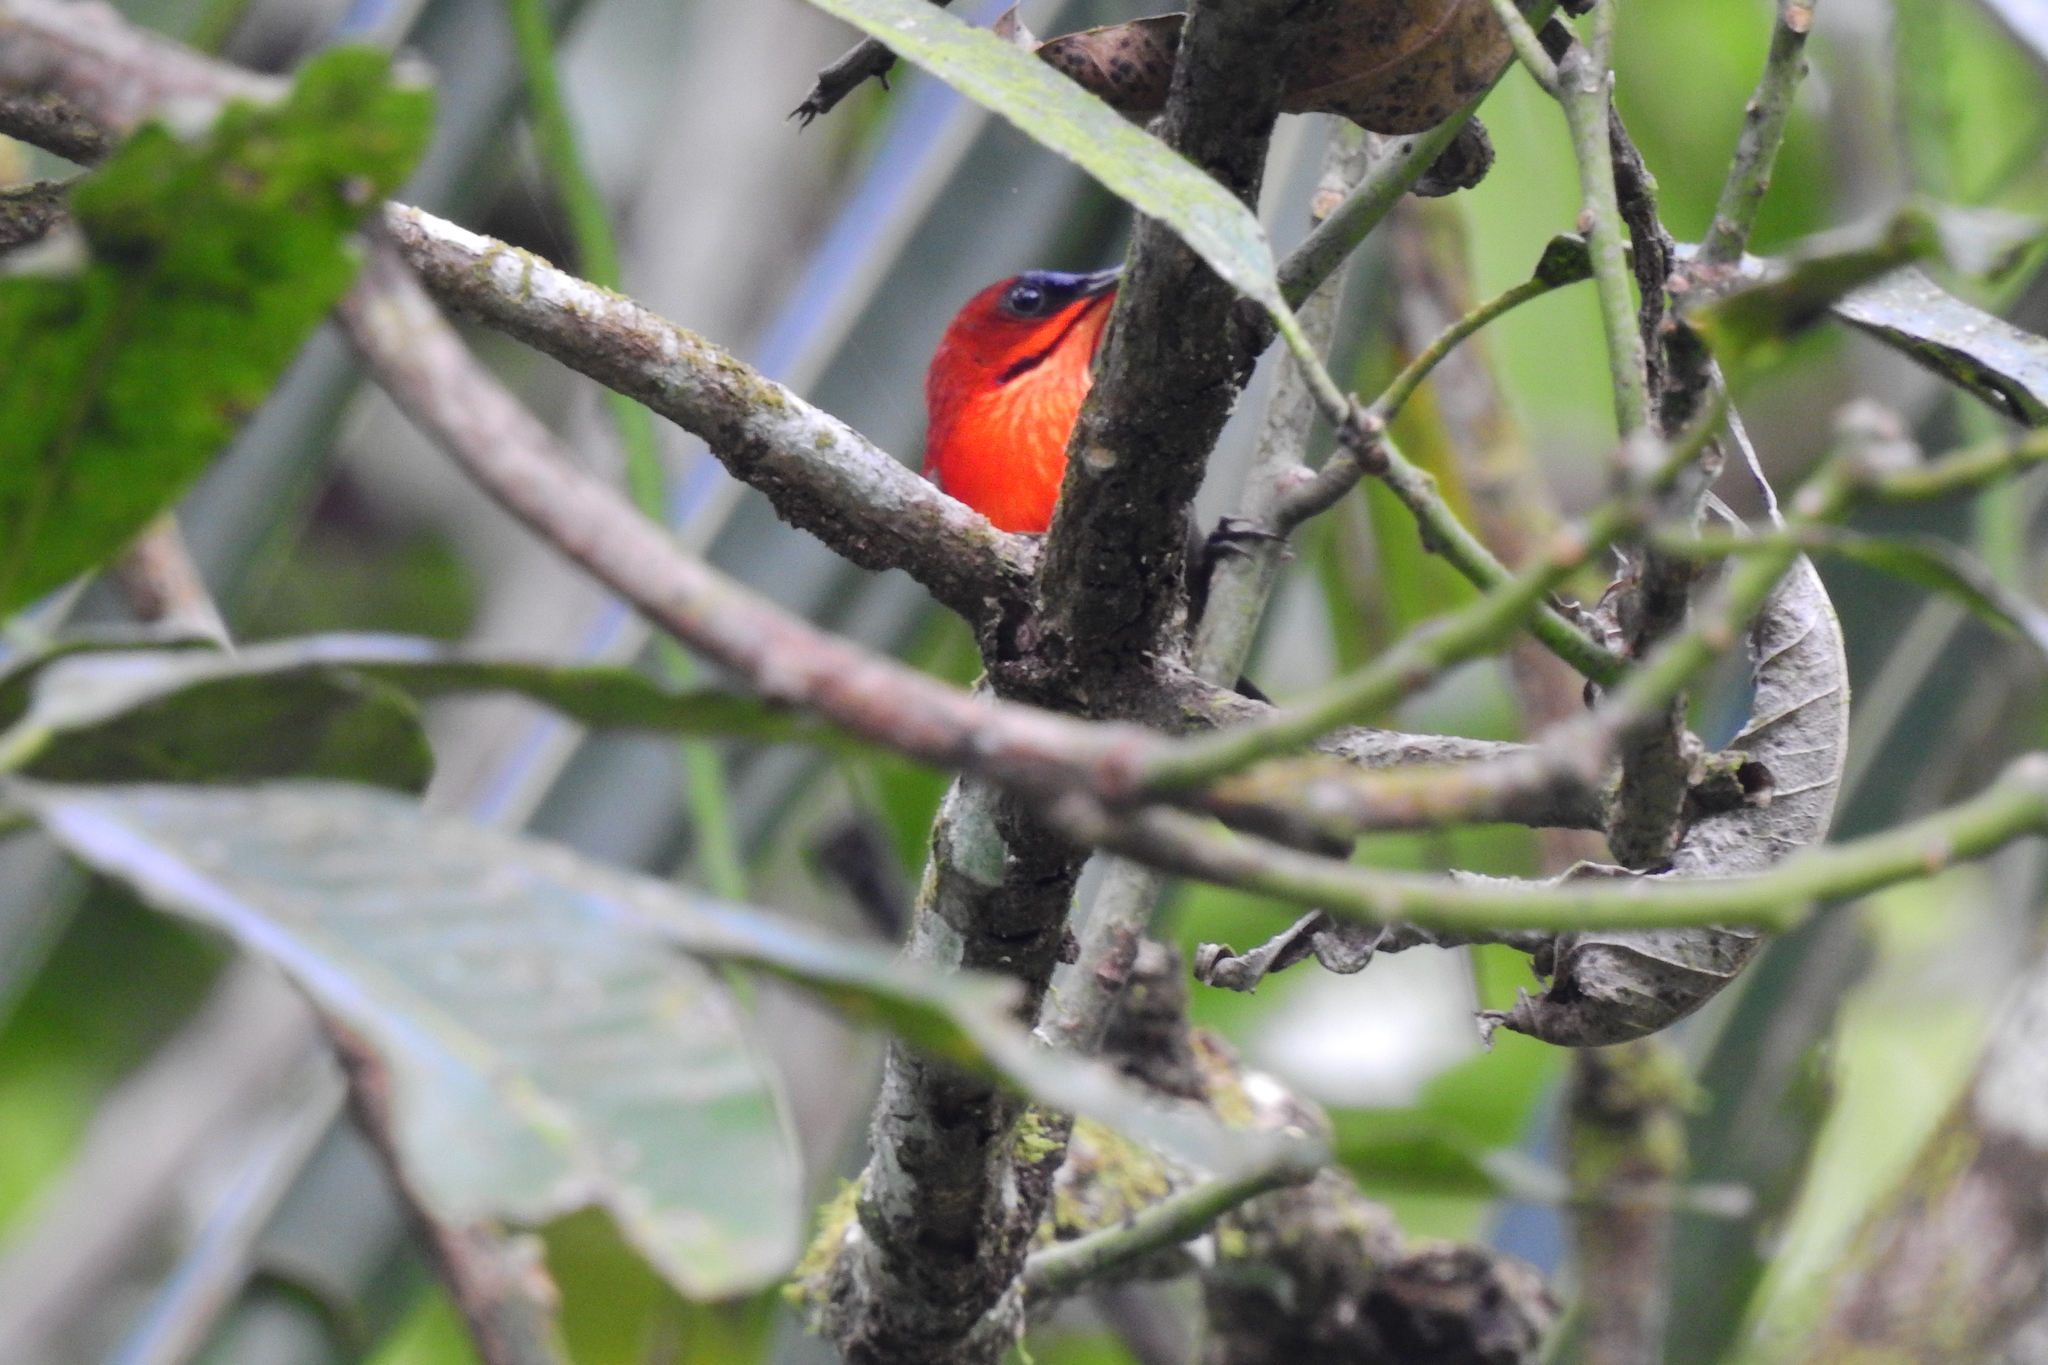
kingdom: Animalia
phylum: Chordata
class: Aves
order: Passeriformes
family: Nectariniidae
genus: Aethopyga
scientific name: Aethopyga siparaja
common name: Crimson sunbird
